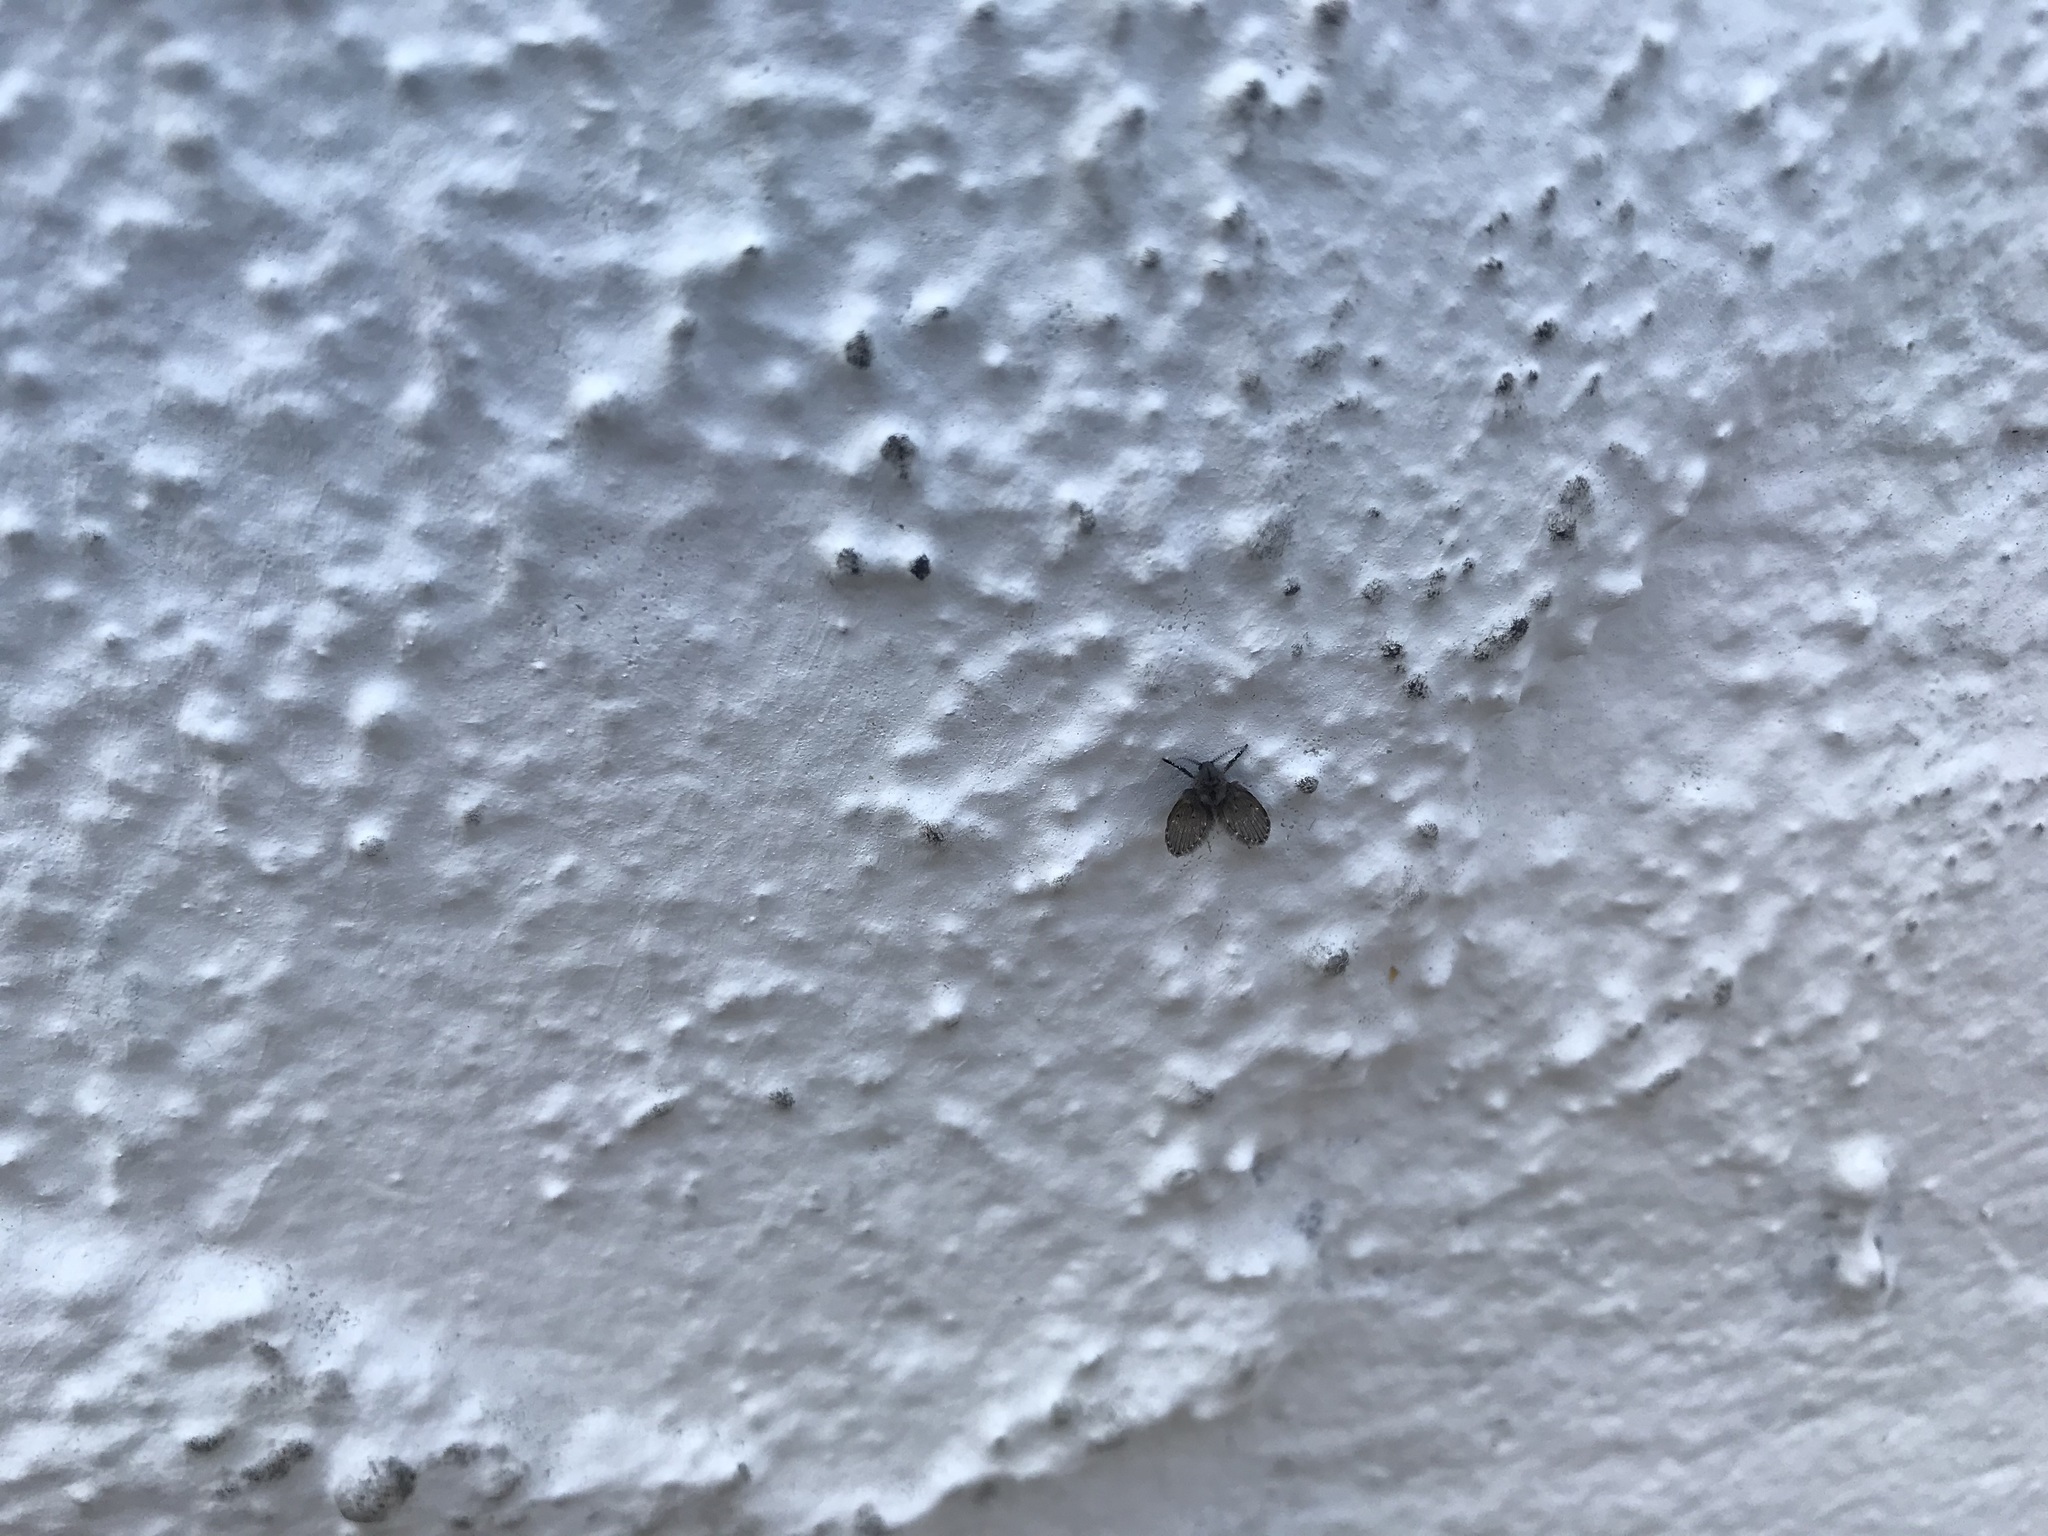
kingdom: Animalia
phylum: Arthropoda
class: Insecta
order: Diptera
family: Psychodidae
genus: Clogmia
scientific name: Clogmia albipunctatus
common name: White-spotted moth fly
